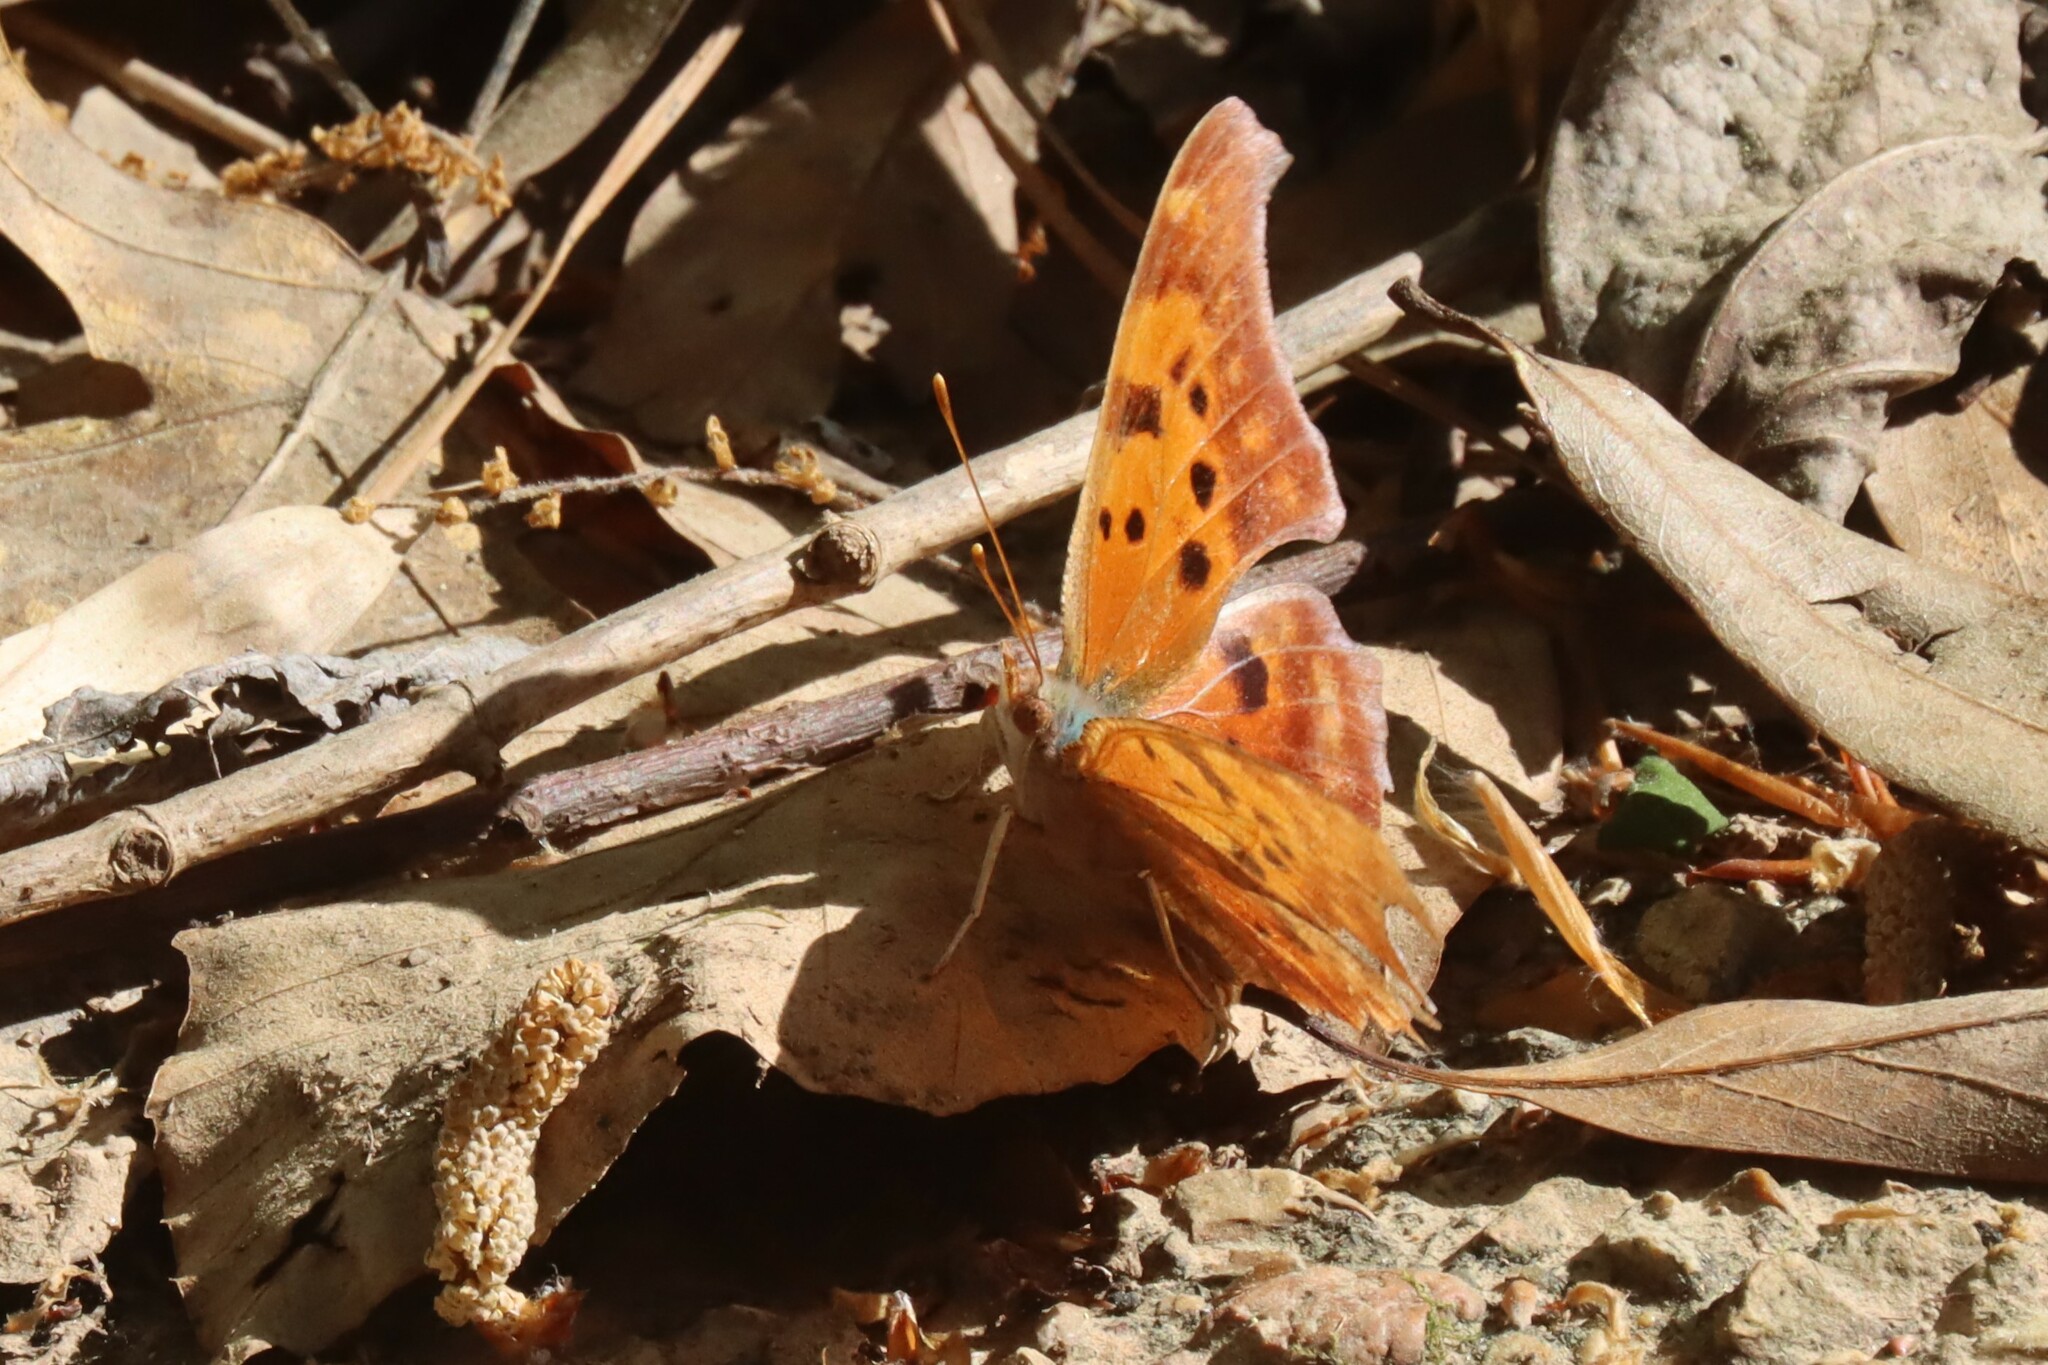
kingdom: Animalia
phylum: Arthropoda
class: Insecta
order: Lepidoptera
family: Nymphalidae
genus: Polygonia
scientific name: Polygonia interrogationis
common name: Question mark
